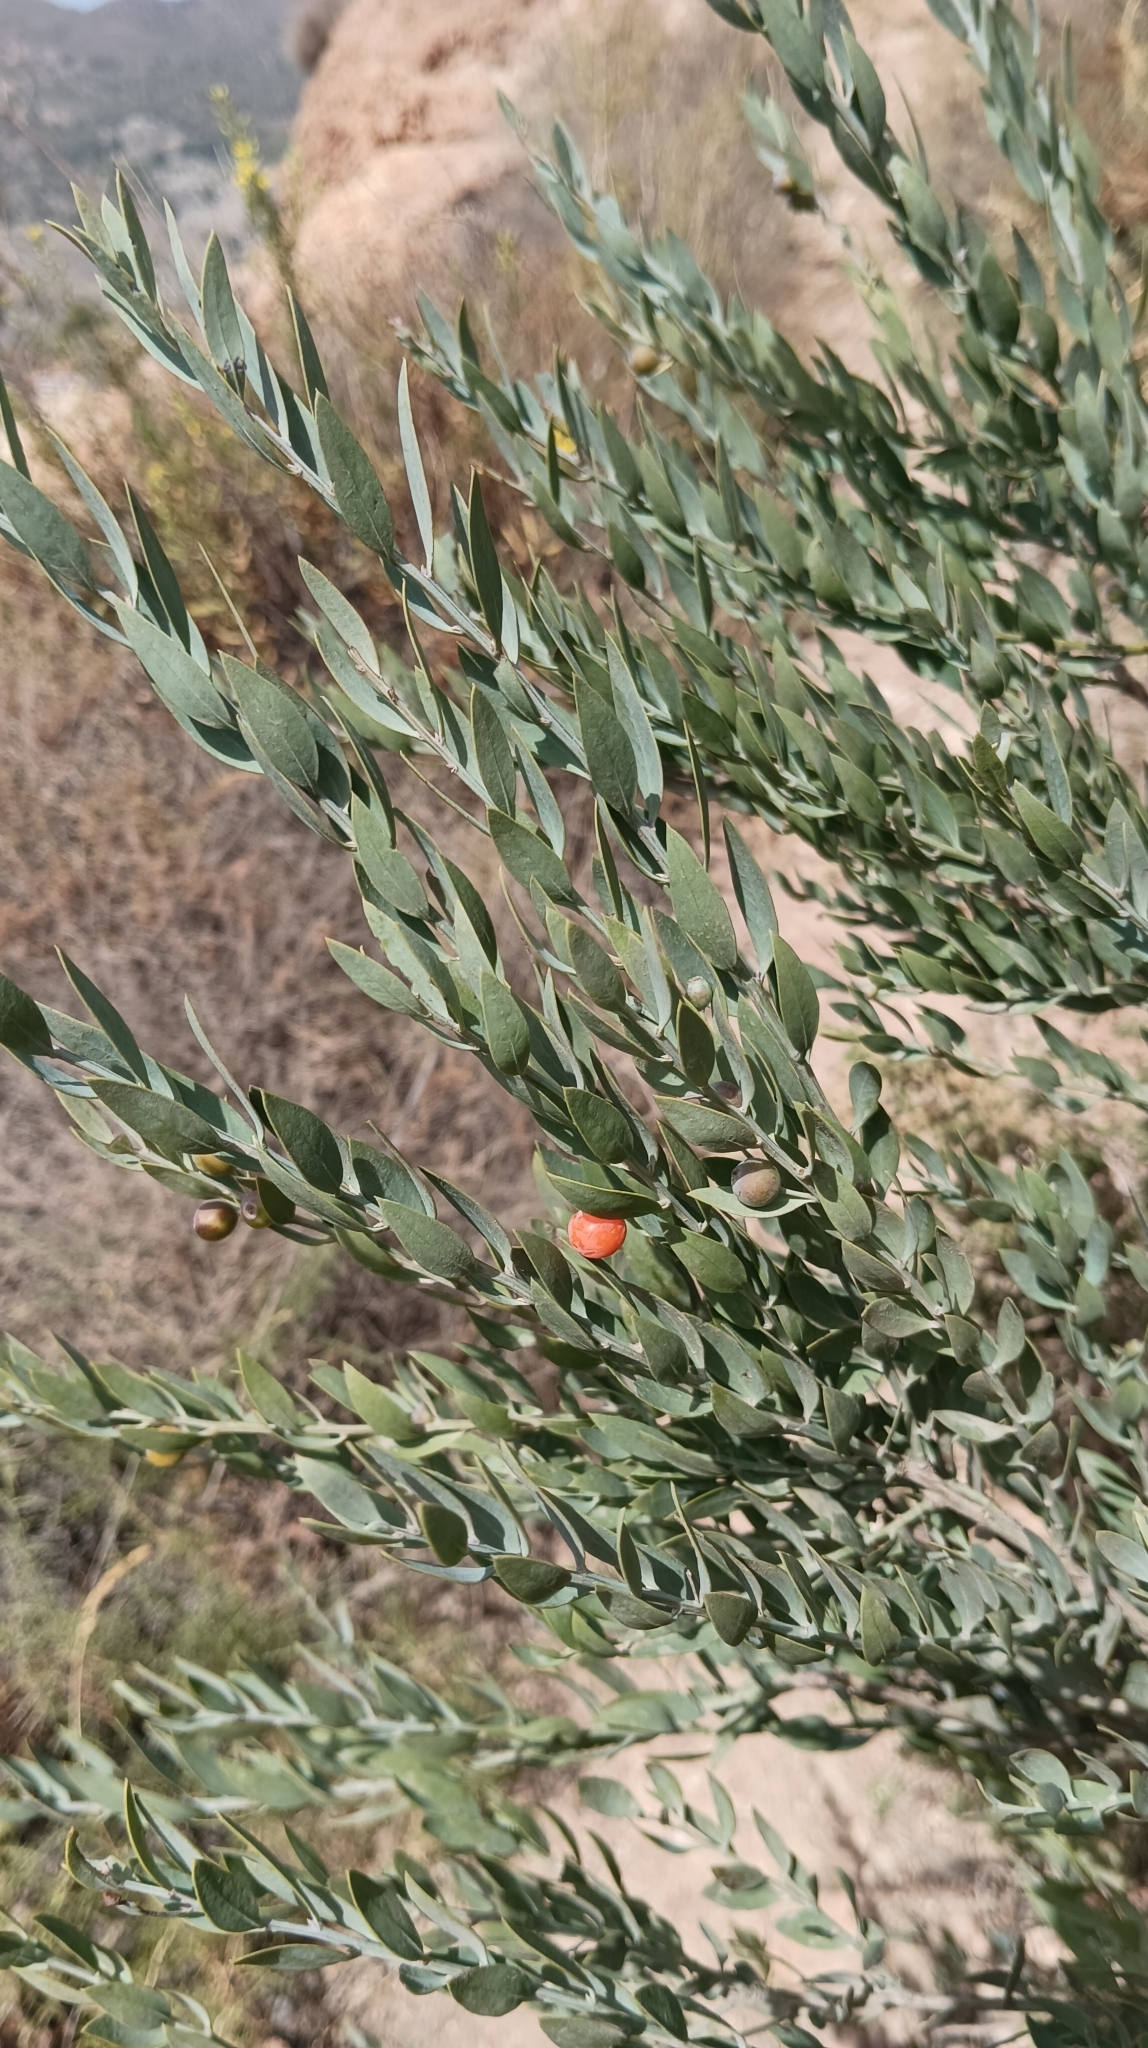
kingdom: Plantae
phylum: Tracheophyta
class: Magnoliopsida
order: Santalales
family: Santalaceae
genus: Osyris
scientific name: Osyris lanceolata
